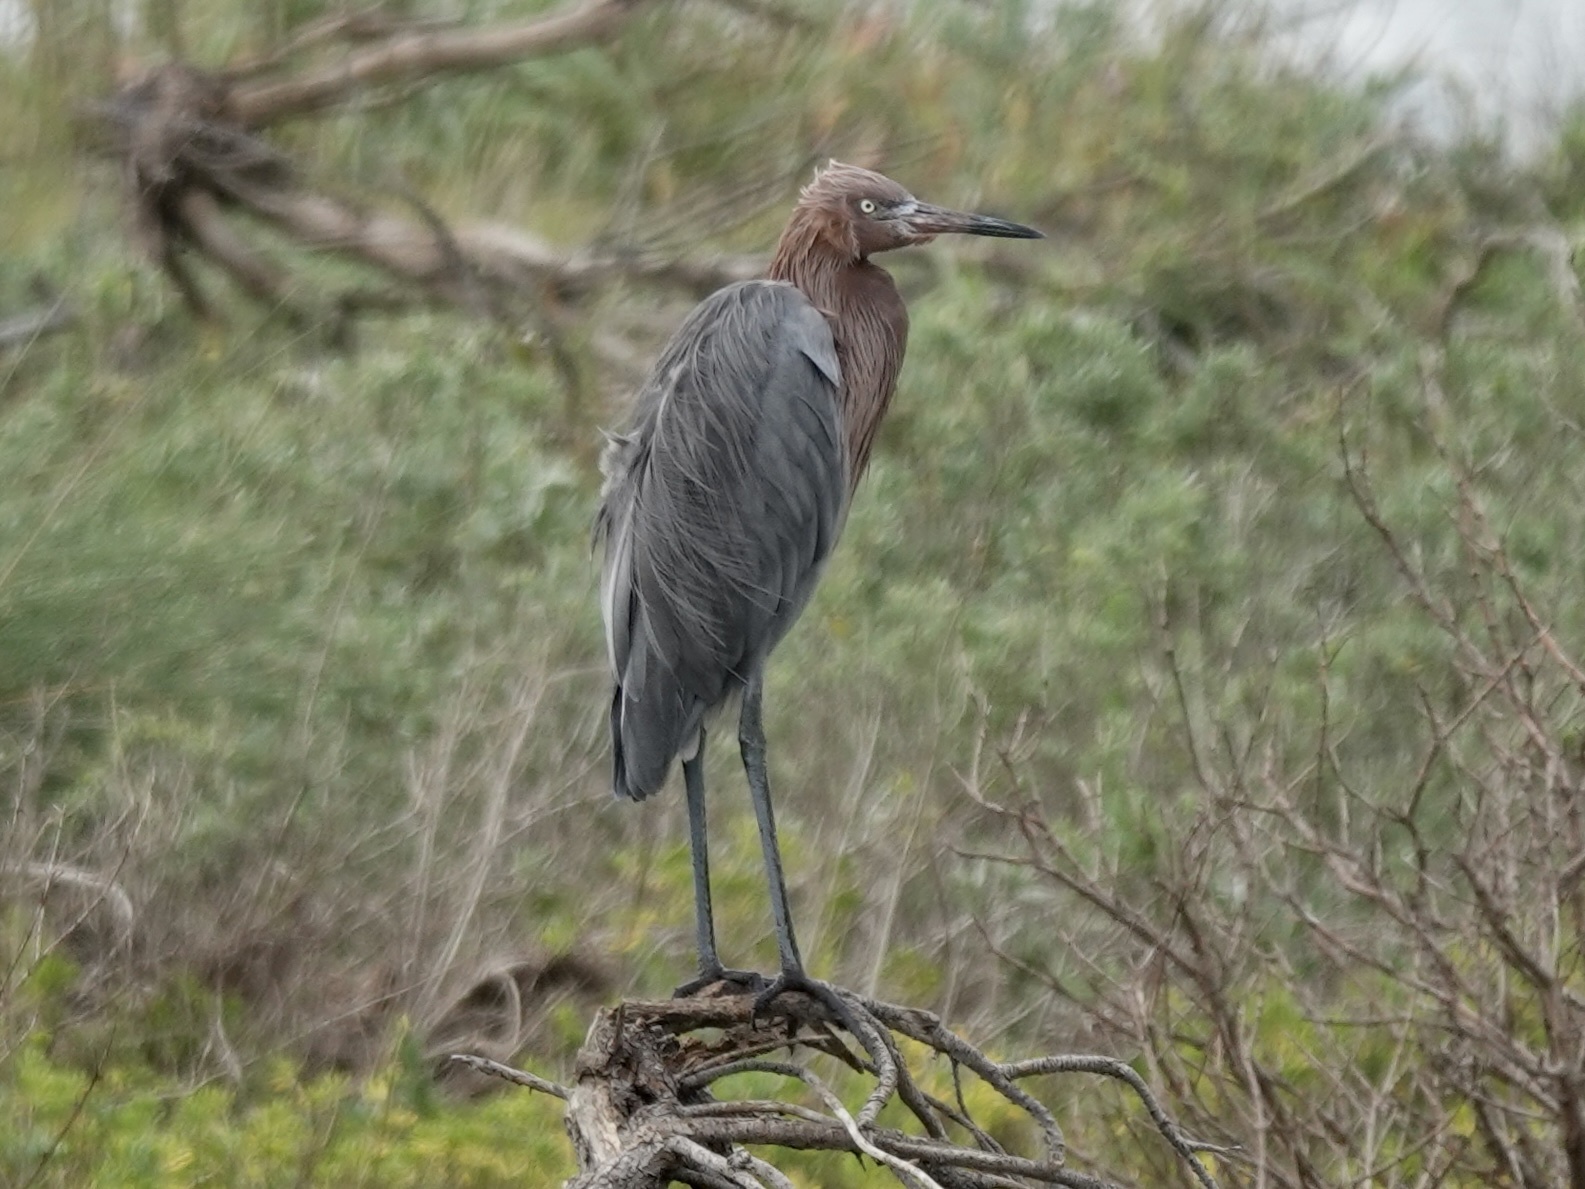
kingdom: Animalia
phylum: Chordata
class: Aves
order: Pelecaniformes
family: Ardeidae
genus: Egretta
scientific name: Egretta rufescens
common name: Reddish egret
